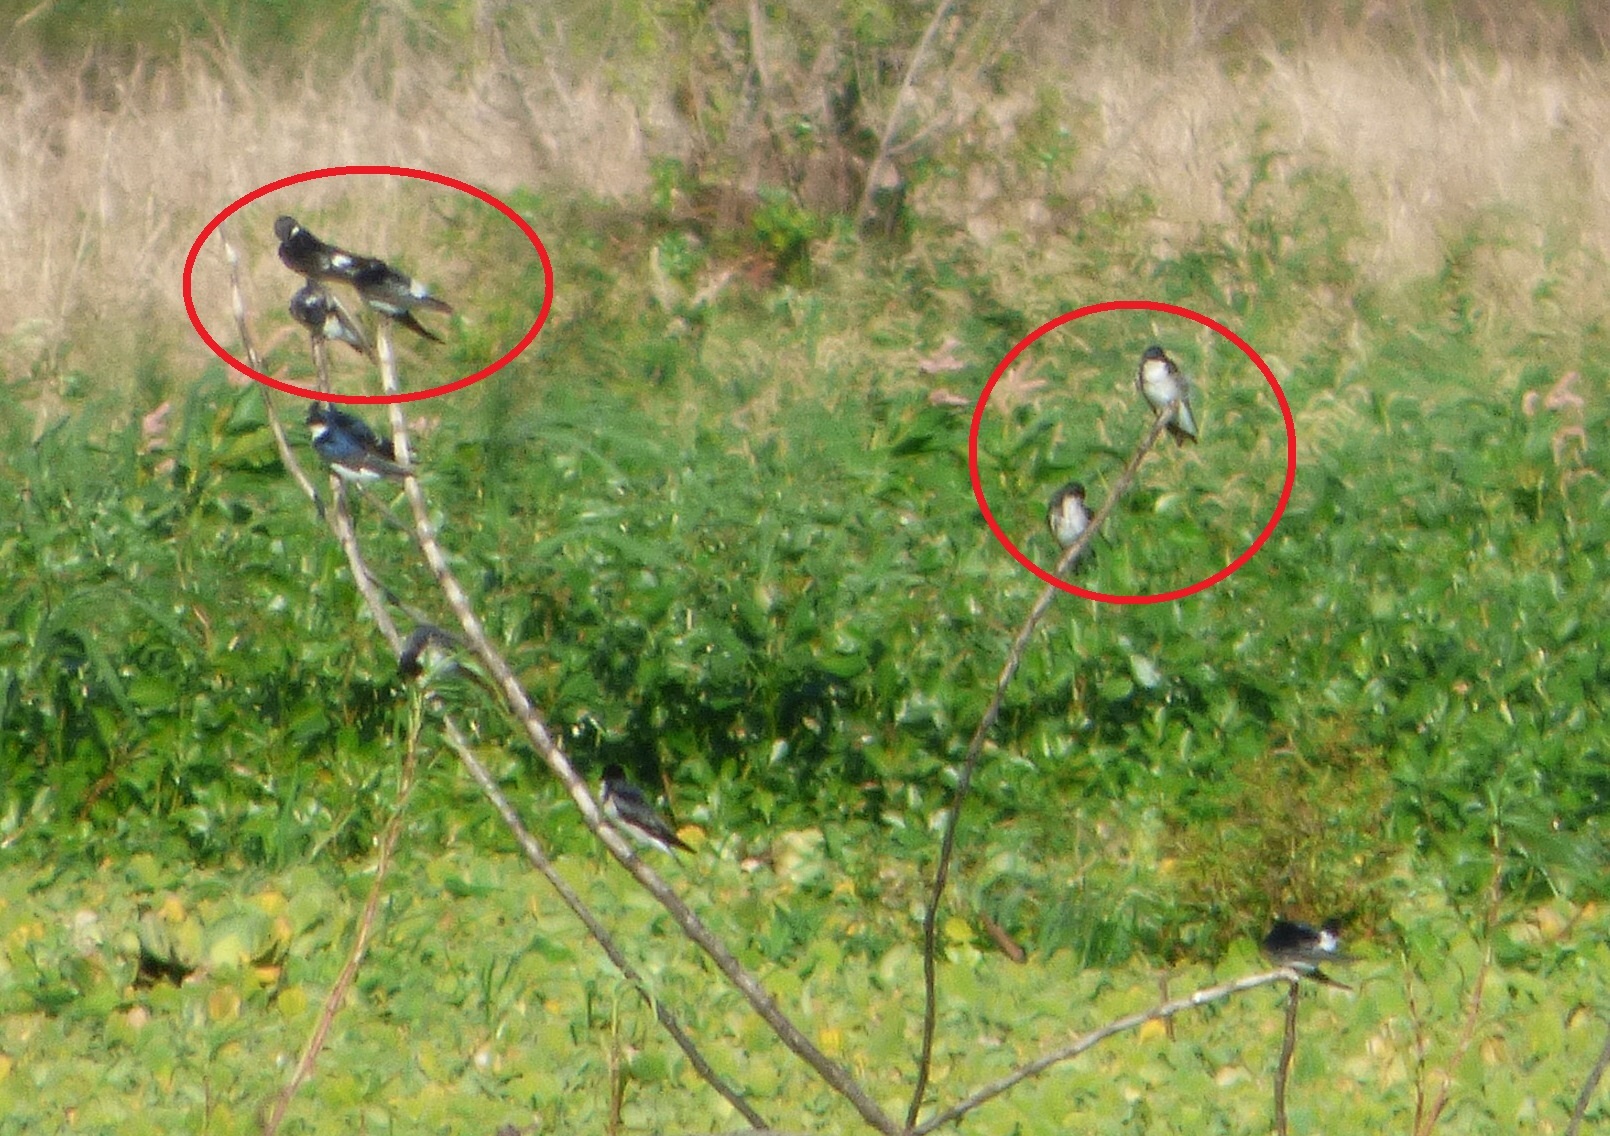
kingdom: Animalia
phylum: Chordata
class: Aves
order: Passeriformes
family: Hirundinidae
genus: Tachycineta
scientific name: Tachycineta leucopyga
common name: Chilean swallow
